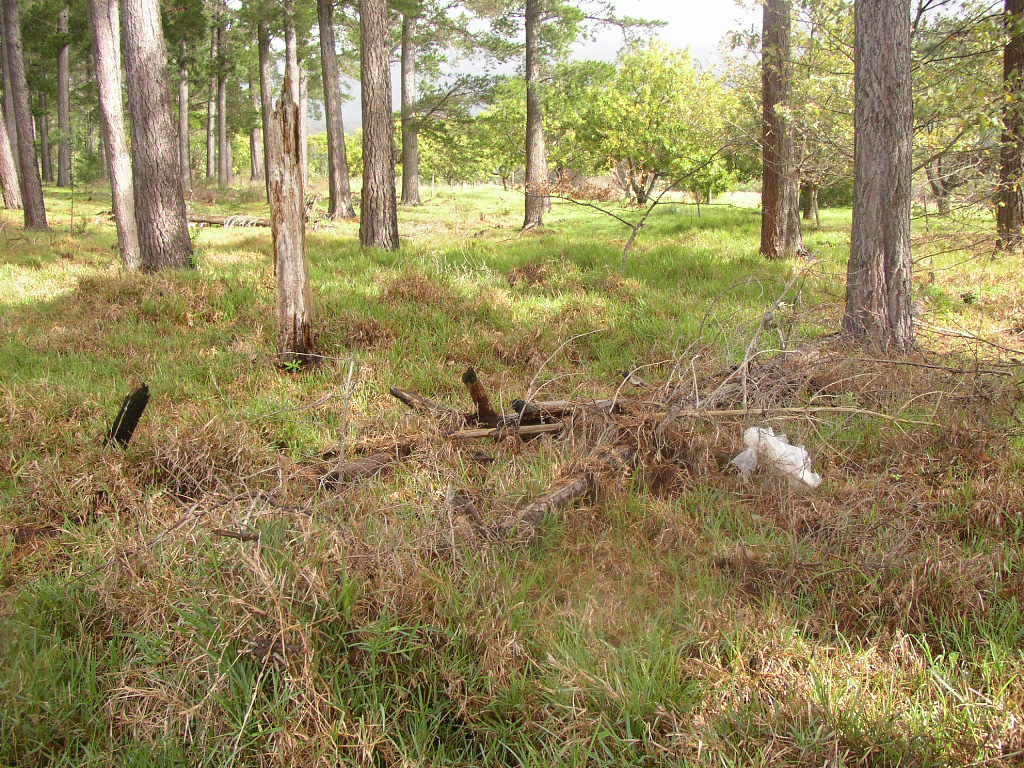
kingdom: Plantae
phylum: Tracheophyta
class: Liliopsida
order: Poales
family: Poaceae
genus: Stenotaphrum
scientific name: Stenotaphrum secundatum
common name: St. augustine grass
